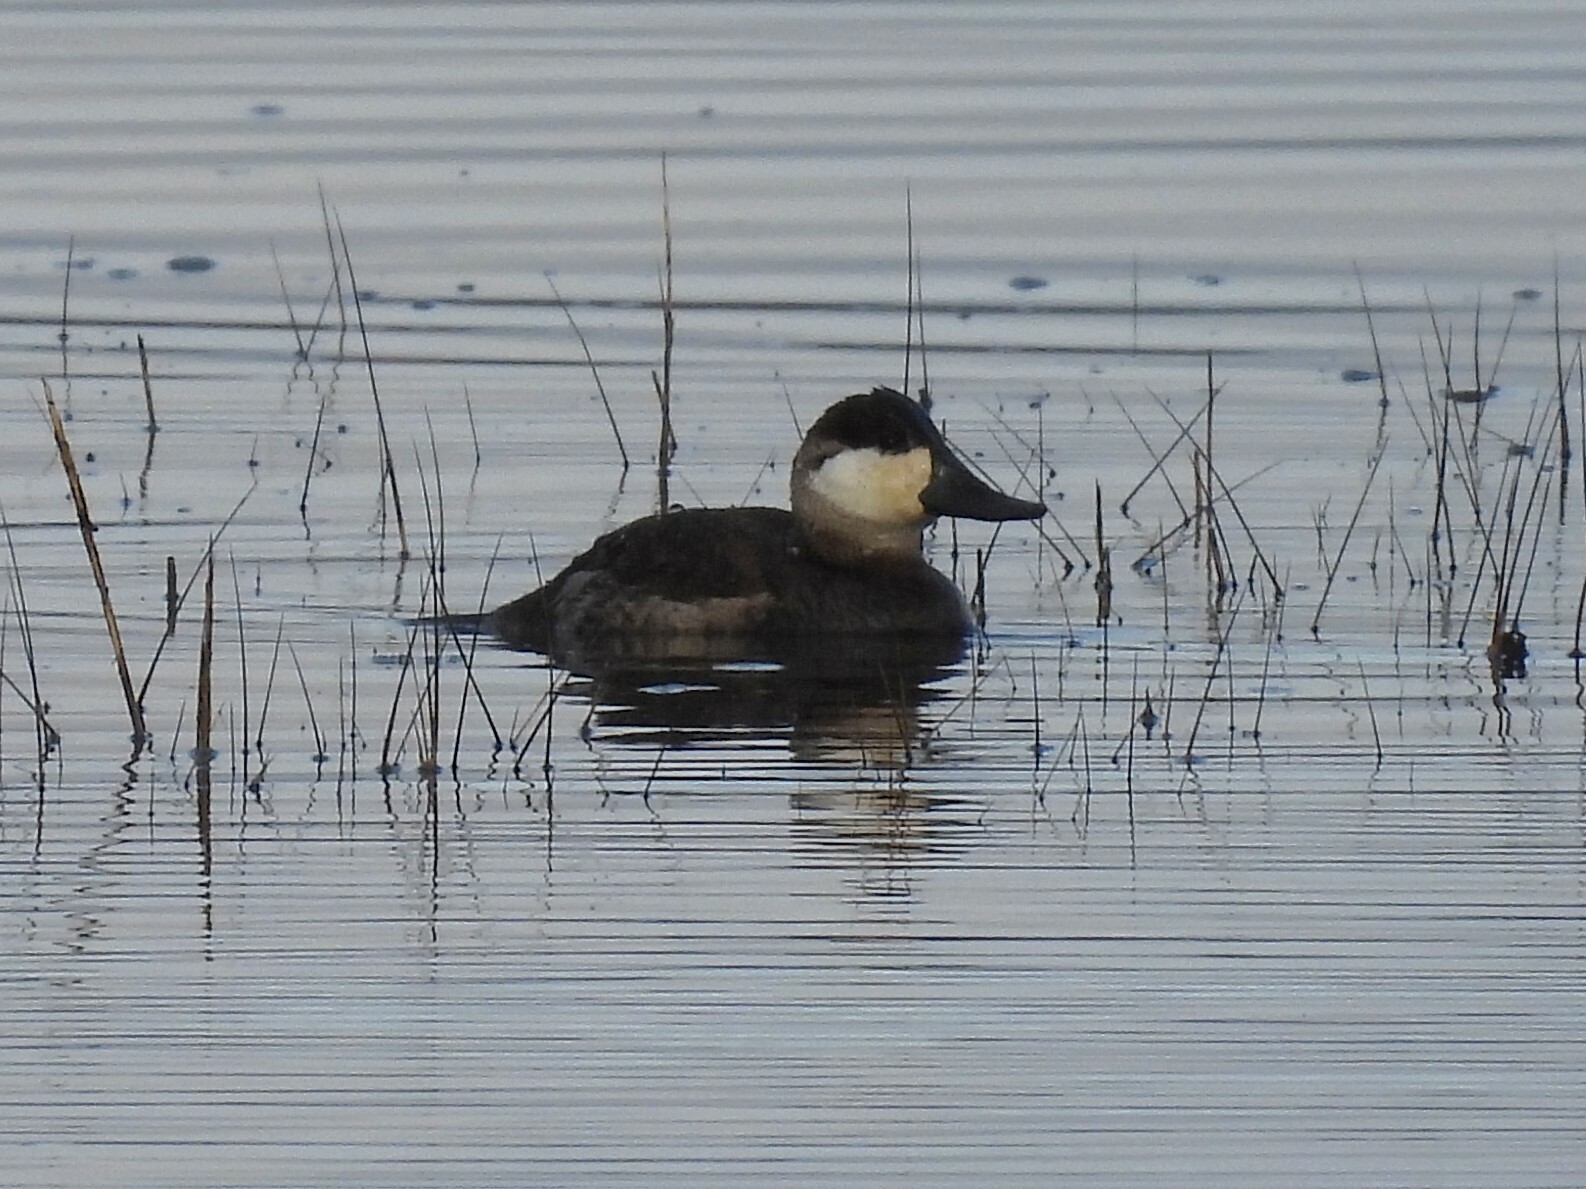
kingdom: Animalia
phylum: Chordata
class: Aves
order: Anseriformes
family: Anatidae
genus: Oxyura
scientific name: Oxyura jamaicensis
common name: Ruddy duck
